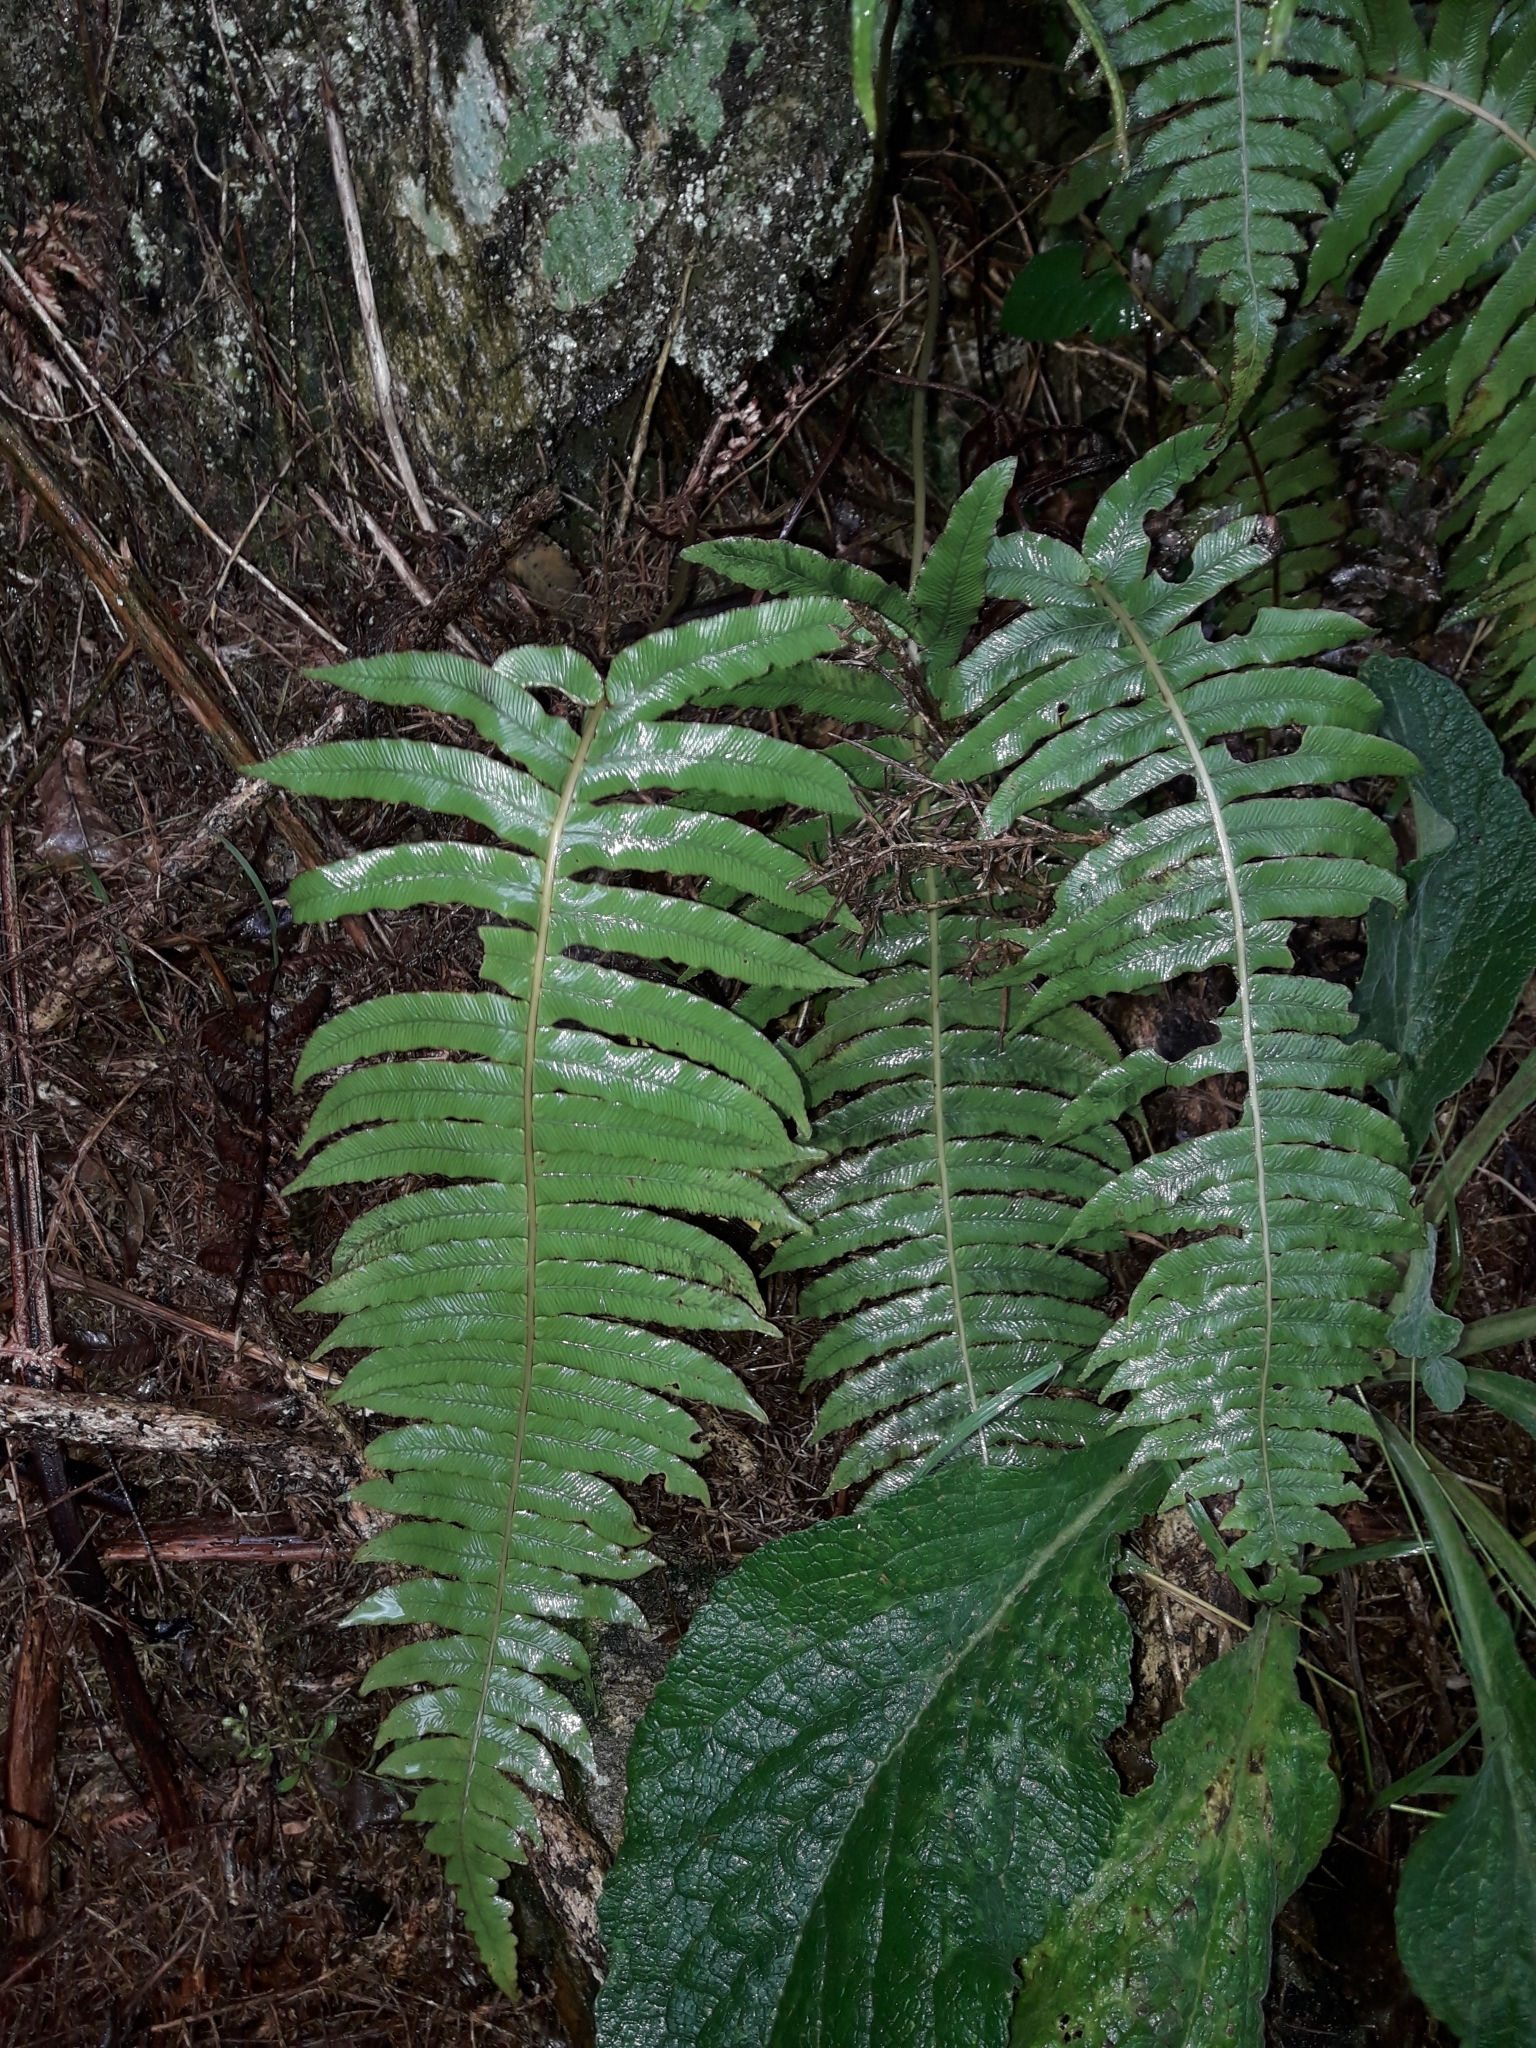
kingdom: Plantae
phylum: Tracheophyta
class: Polypodiopsida
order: Polypodiales
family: Blechnaceae
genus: Cranfillia
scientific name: Cranfillia deltoides
